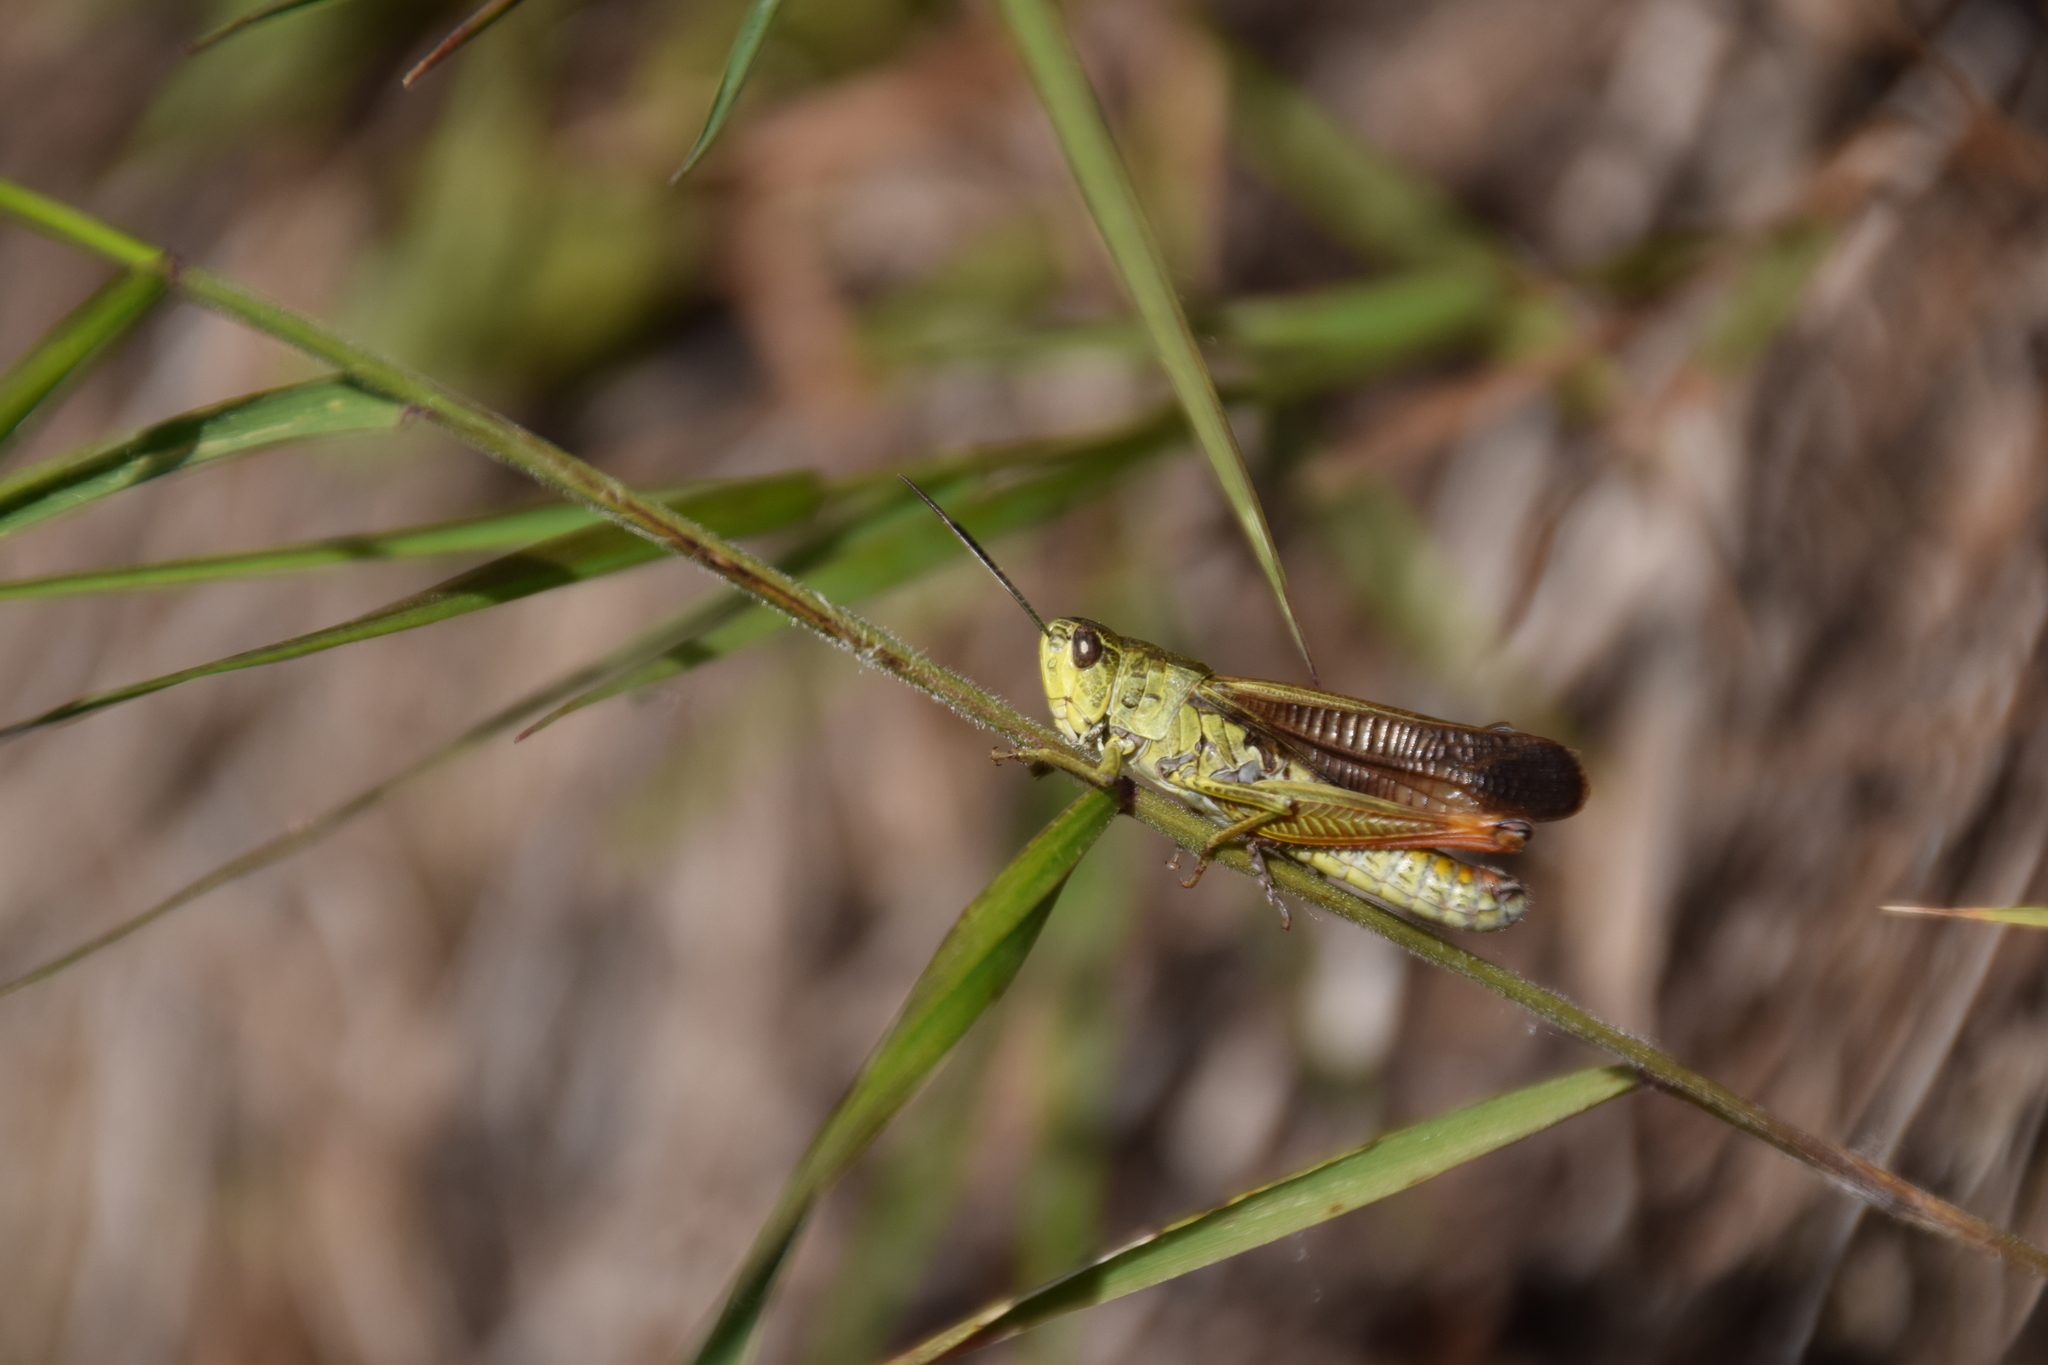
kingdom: Animalia
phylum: Arthropoda
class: Insecta
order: Orthoptera
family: Acrididae
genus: Stauroderus
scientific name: Stauroderus scalaris
